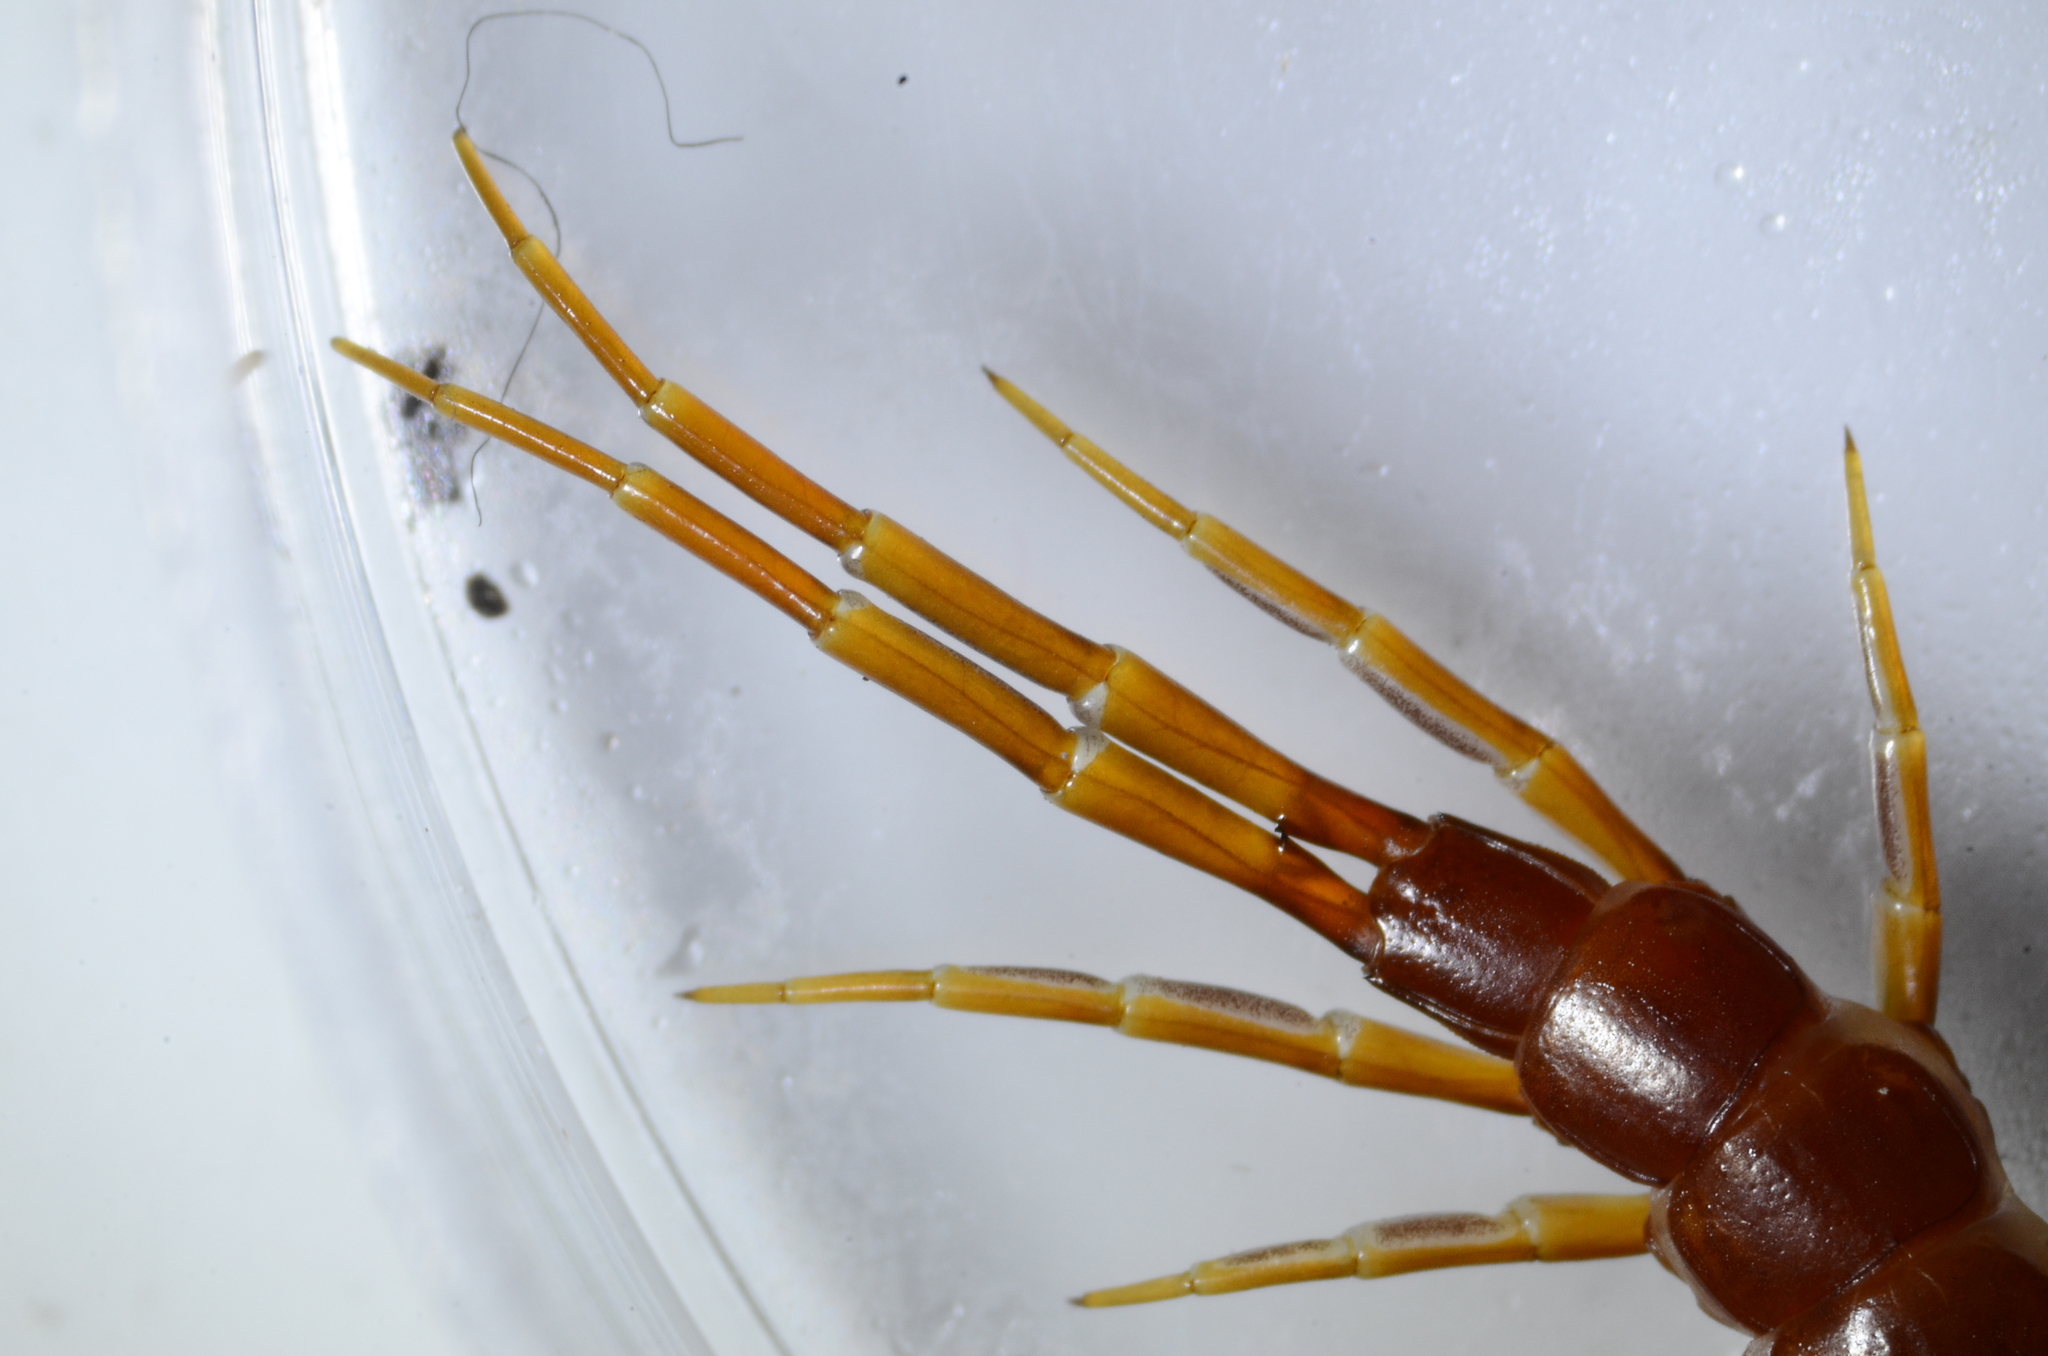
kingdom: Animalia
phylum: Arthropoda
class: Chilopoda
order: Scolopendromorpha
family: Scolopocryptopidae
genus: Scolopocryptops
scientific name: Scolopocryptops spinicaudus
